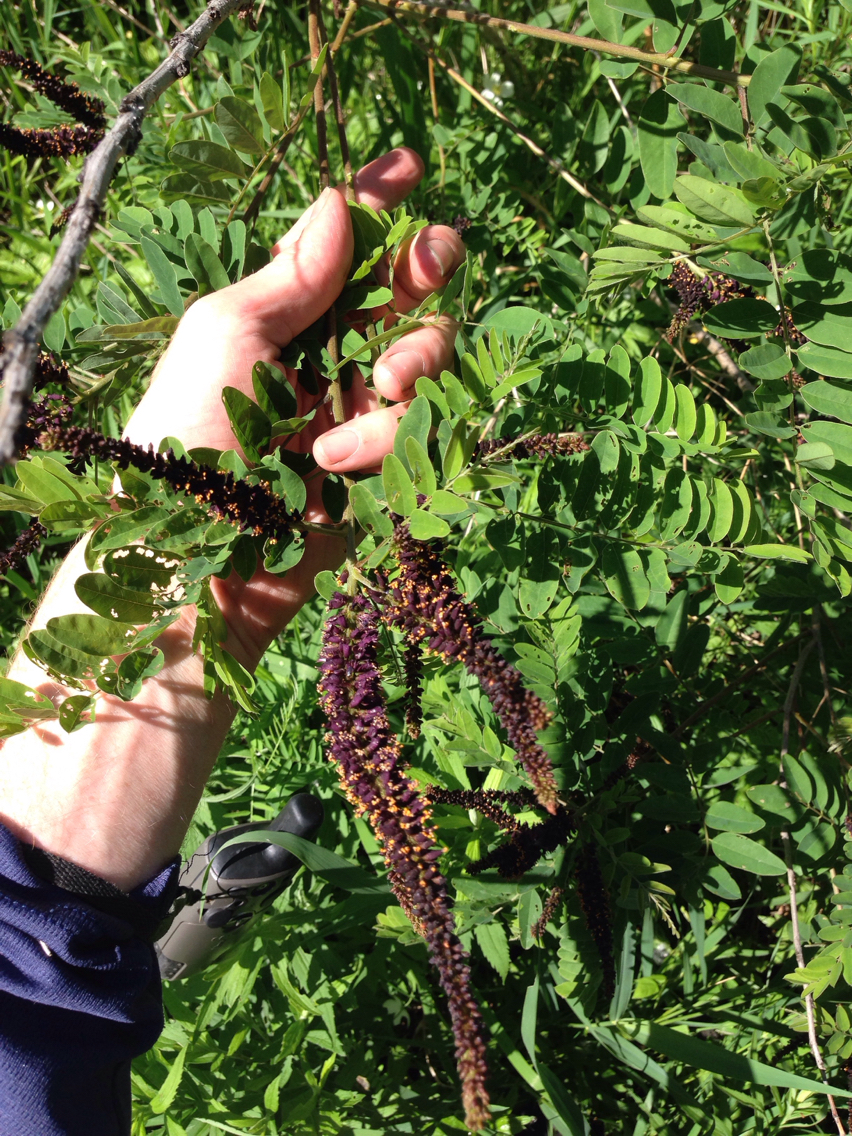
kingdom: Plantae
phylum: Tracheophyta
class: Magnoliopsida
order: Fabales
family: Fabaceae
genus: Amorpha
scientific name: Amorpha fruticosa
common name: False indigo
